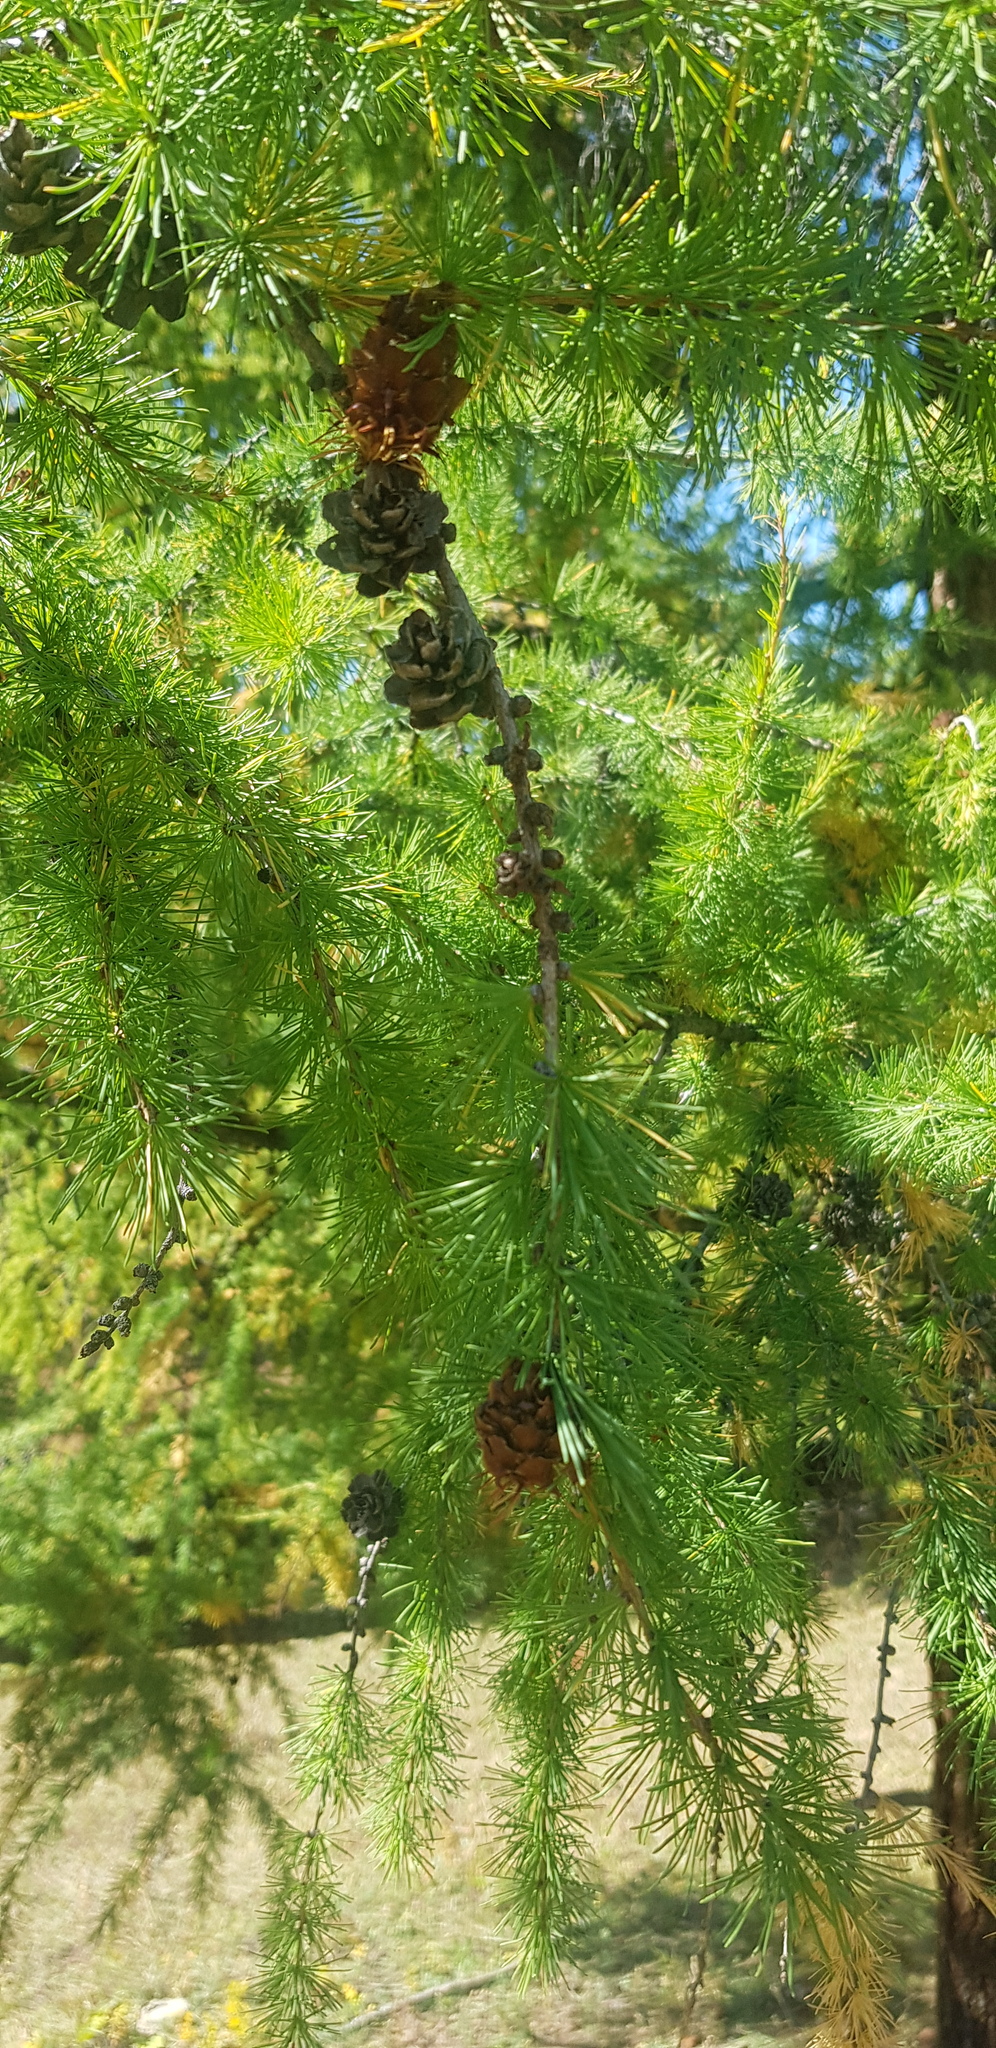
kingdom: Plantae
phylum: Tracheophyta
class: Pinopsida
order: Pinales
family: Pinaceae
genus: Larix
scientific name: Larix sibirica
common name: Siberian larch
